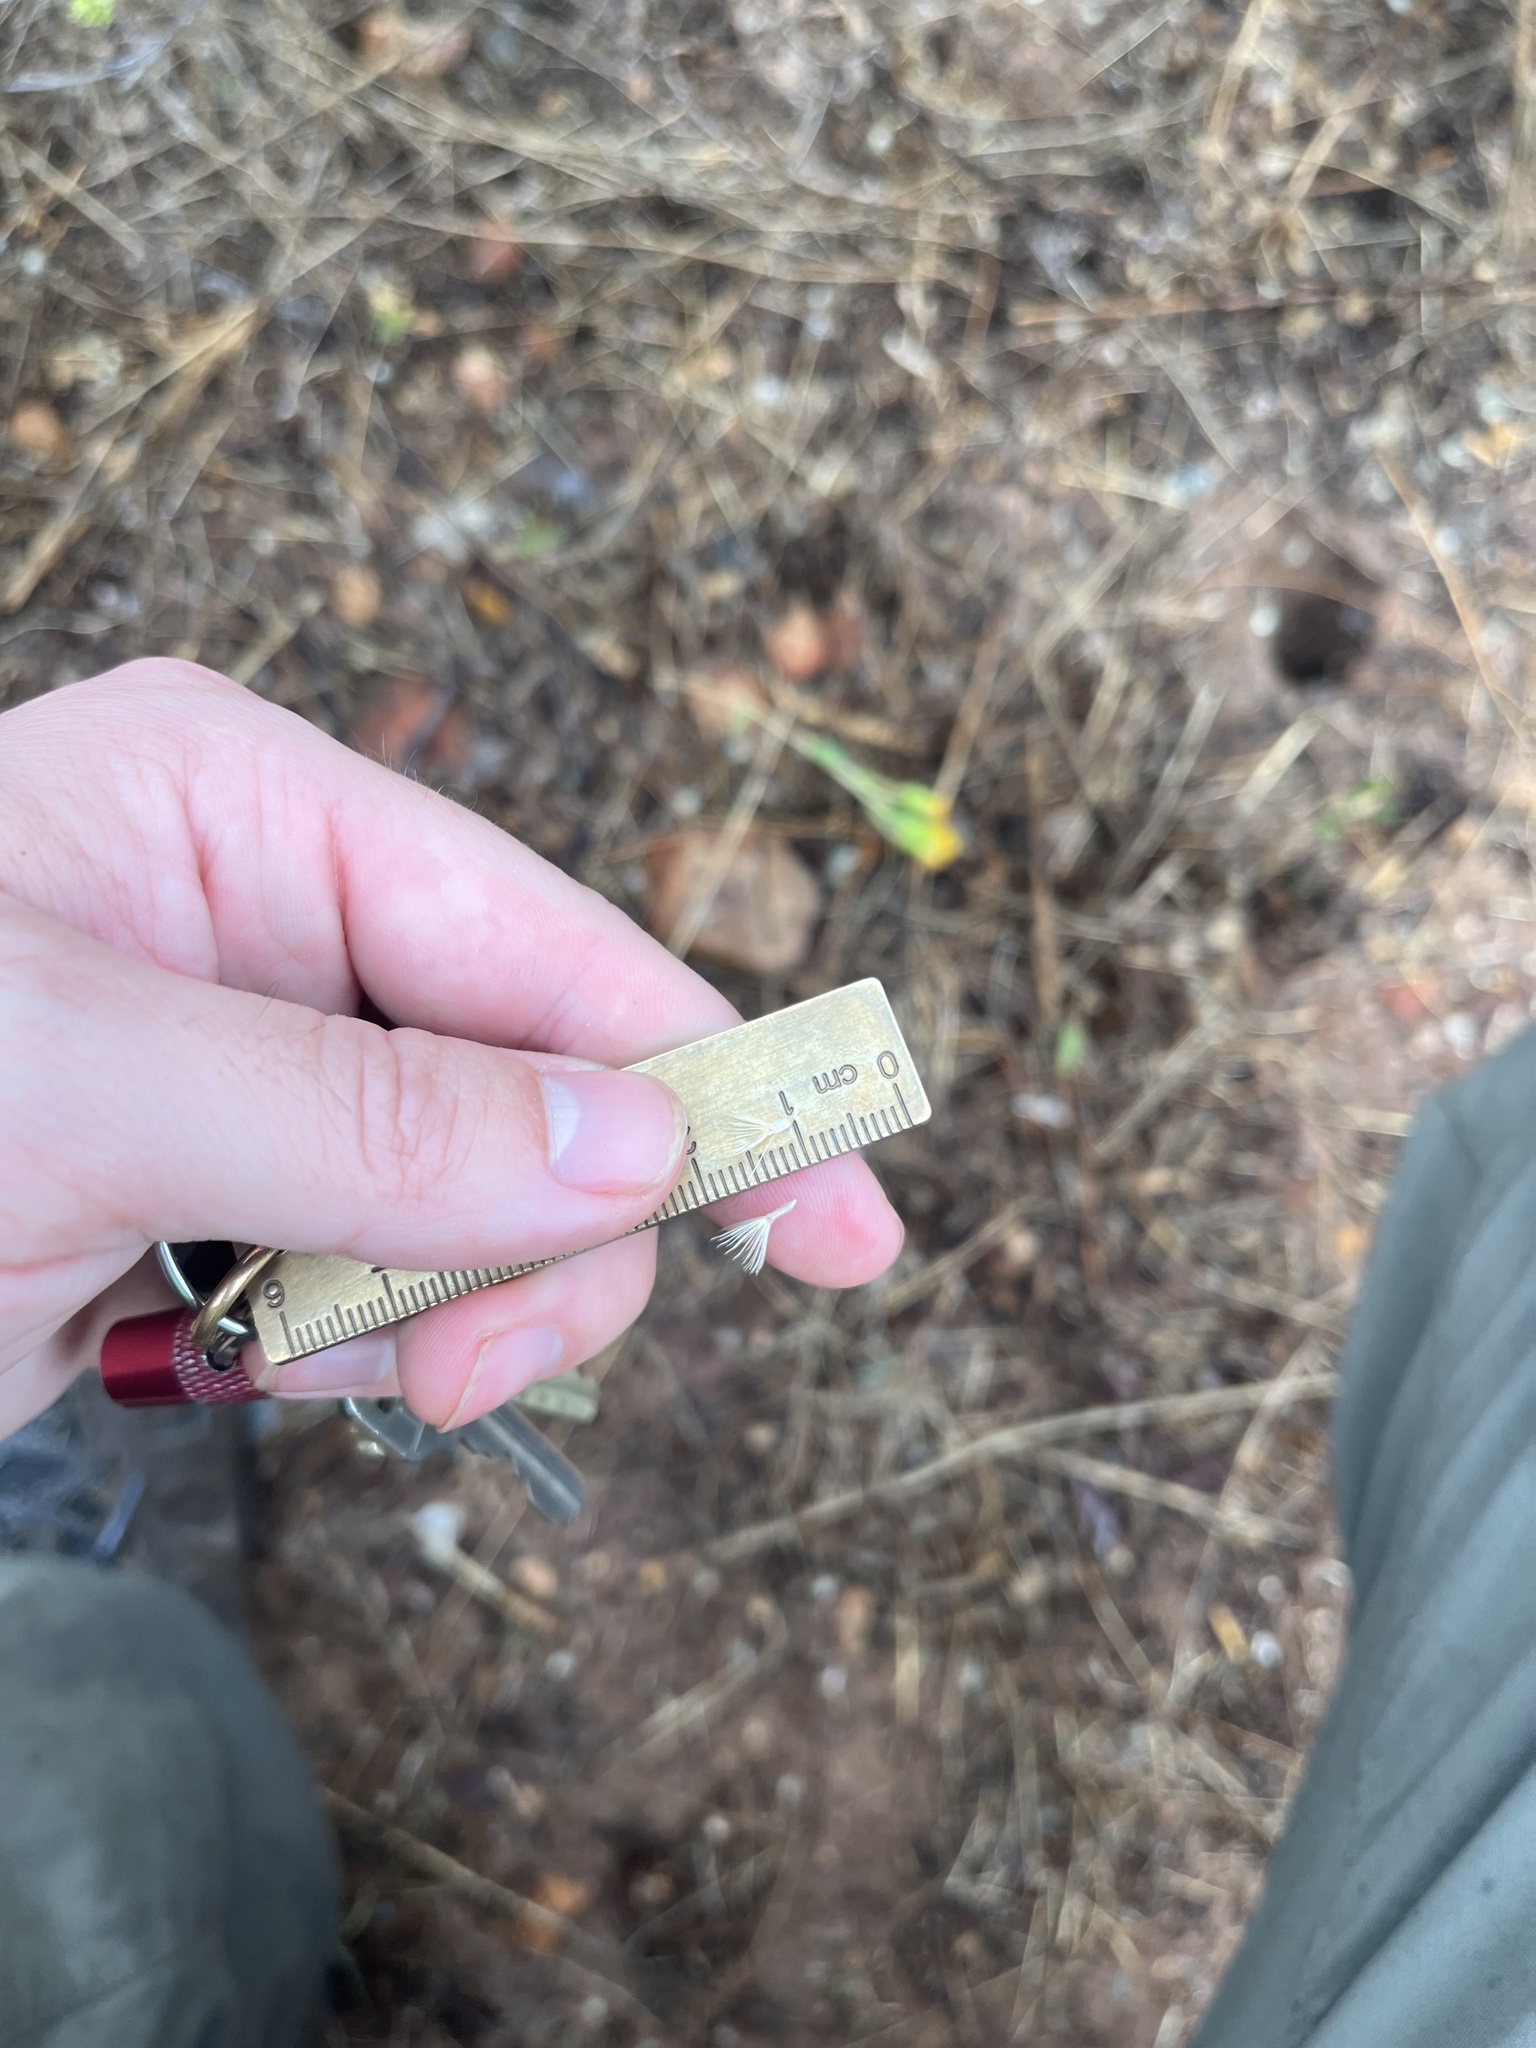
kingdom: Plantae
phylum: Tracheophyta
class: Magnoliopsida
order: Asterales
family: Asteraceae
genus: Isocoma
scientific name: Isocoma menziesii
